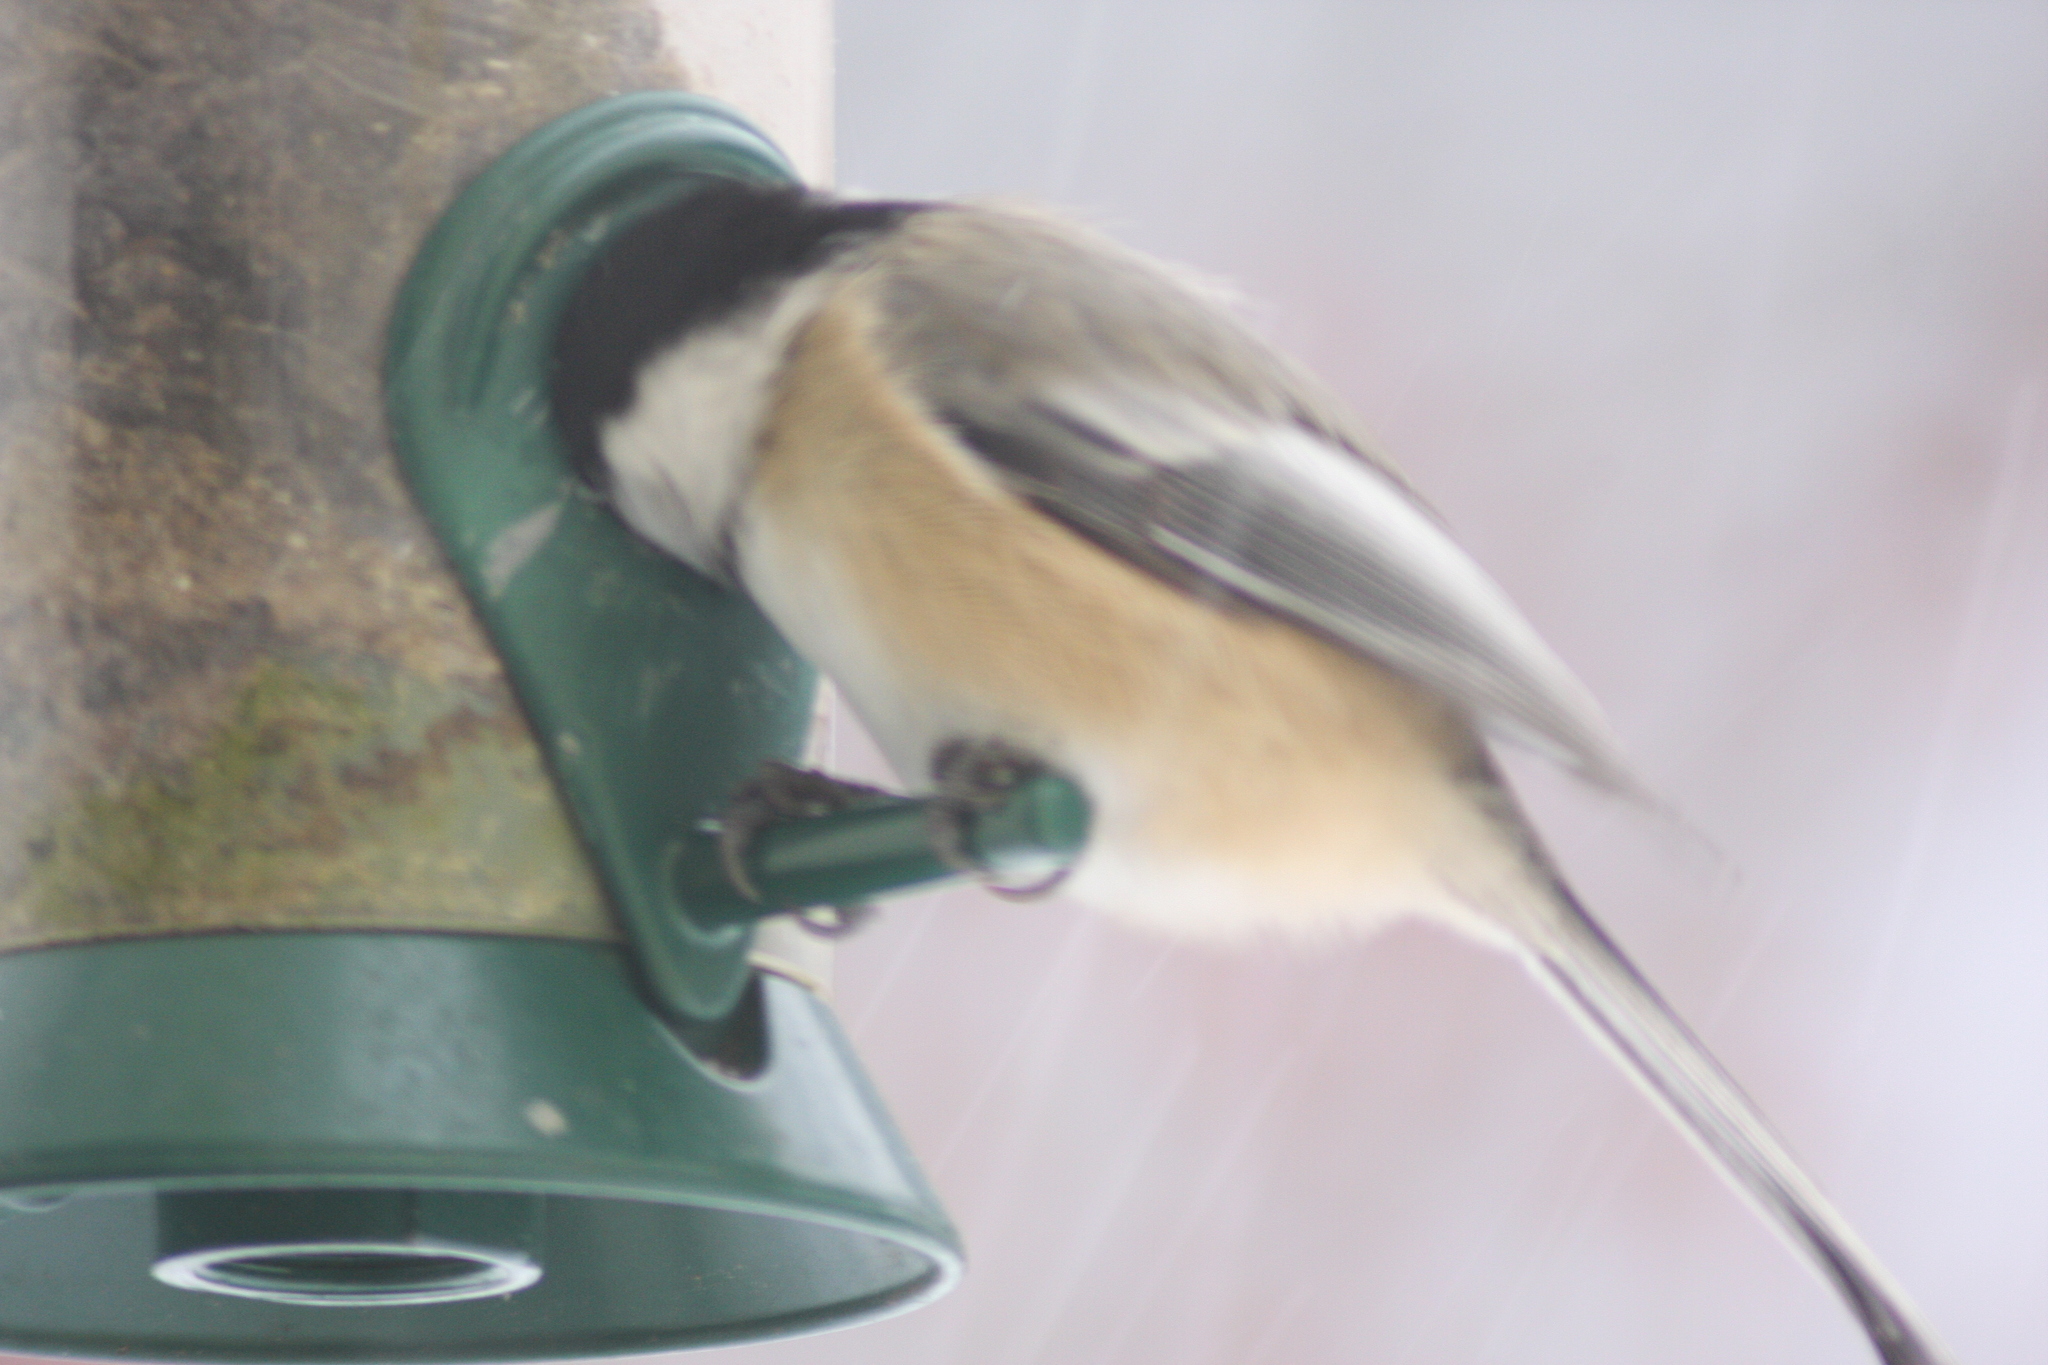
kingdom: Animalia
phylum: Chordata
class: Aves
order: Passeriformes
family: Paridae
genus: Poecile
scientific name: Poecile atricapillus
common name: Black-capped chickadee
